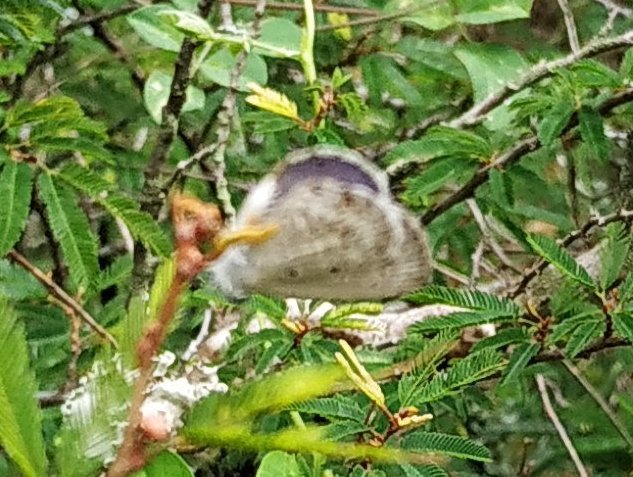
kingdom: Animalia
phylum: Arthropoda
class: Insecta
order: Lepidoptera
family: Lycaenidae
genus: Chilades
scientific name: Chilades laius
